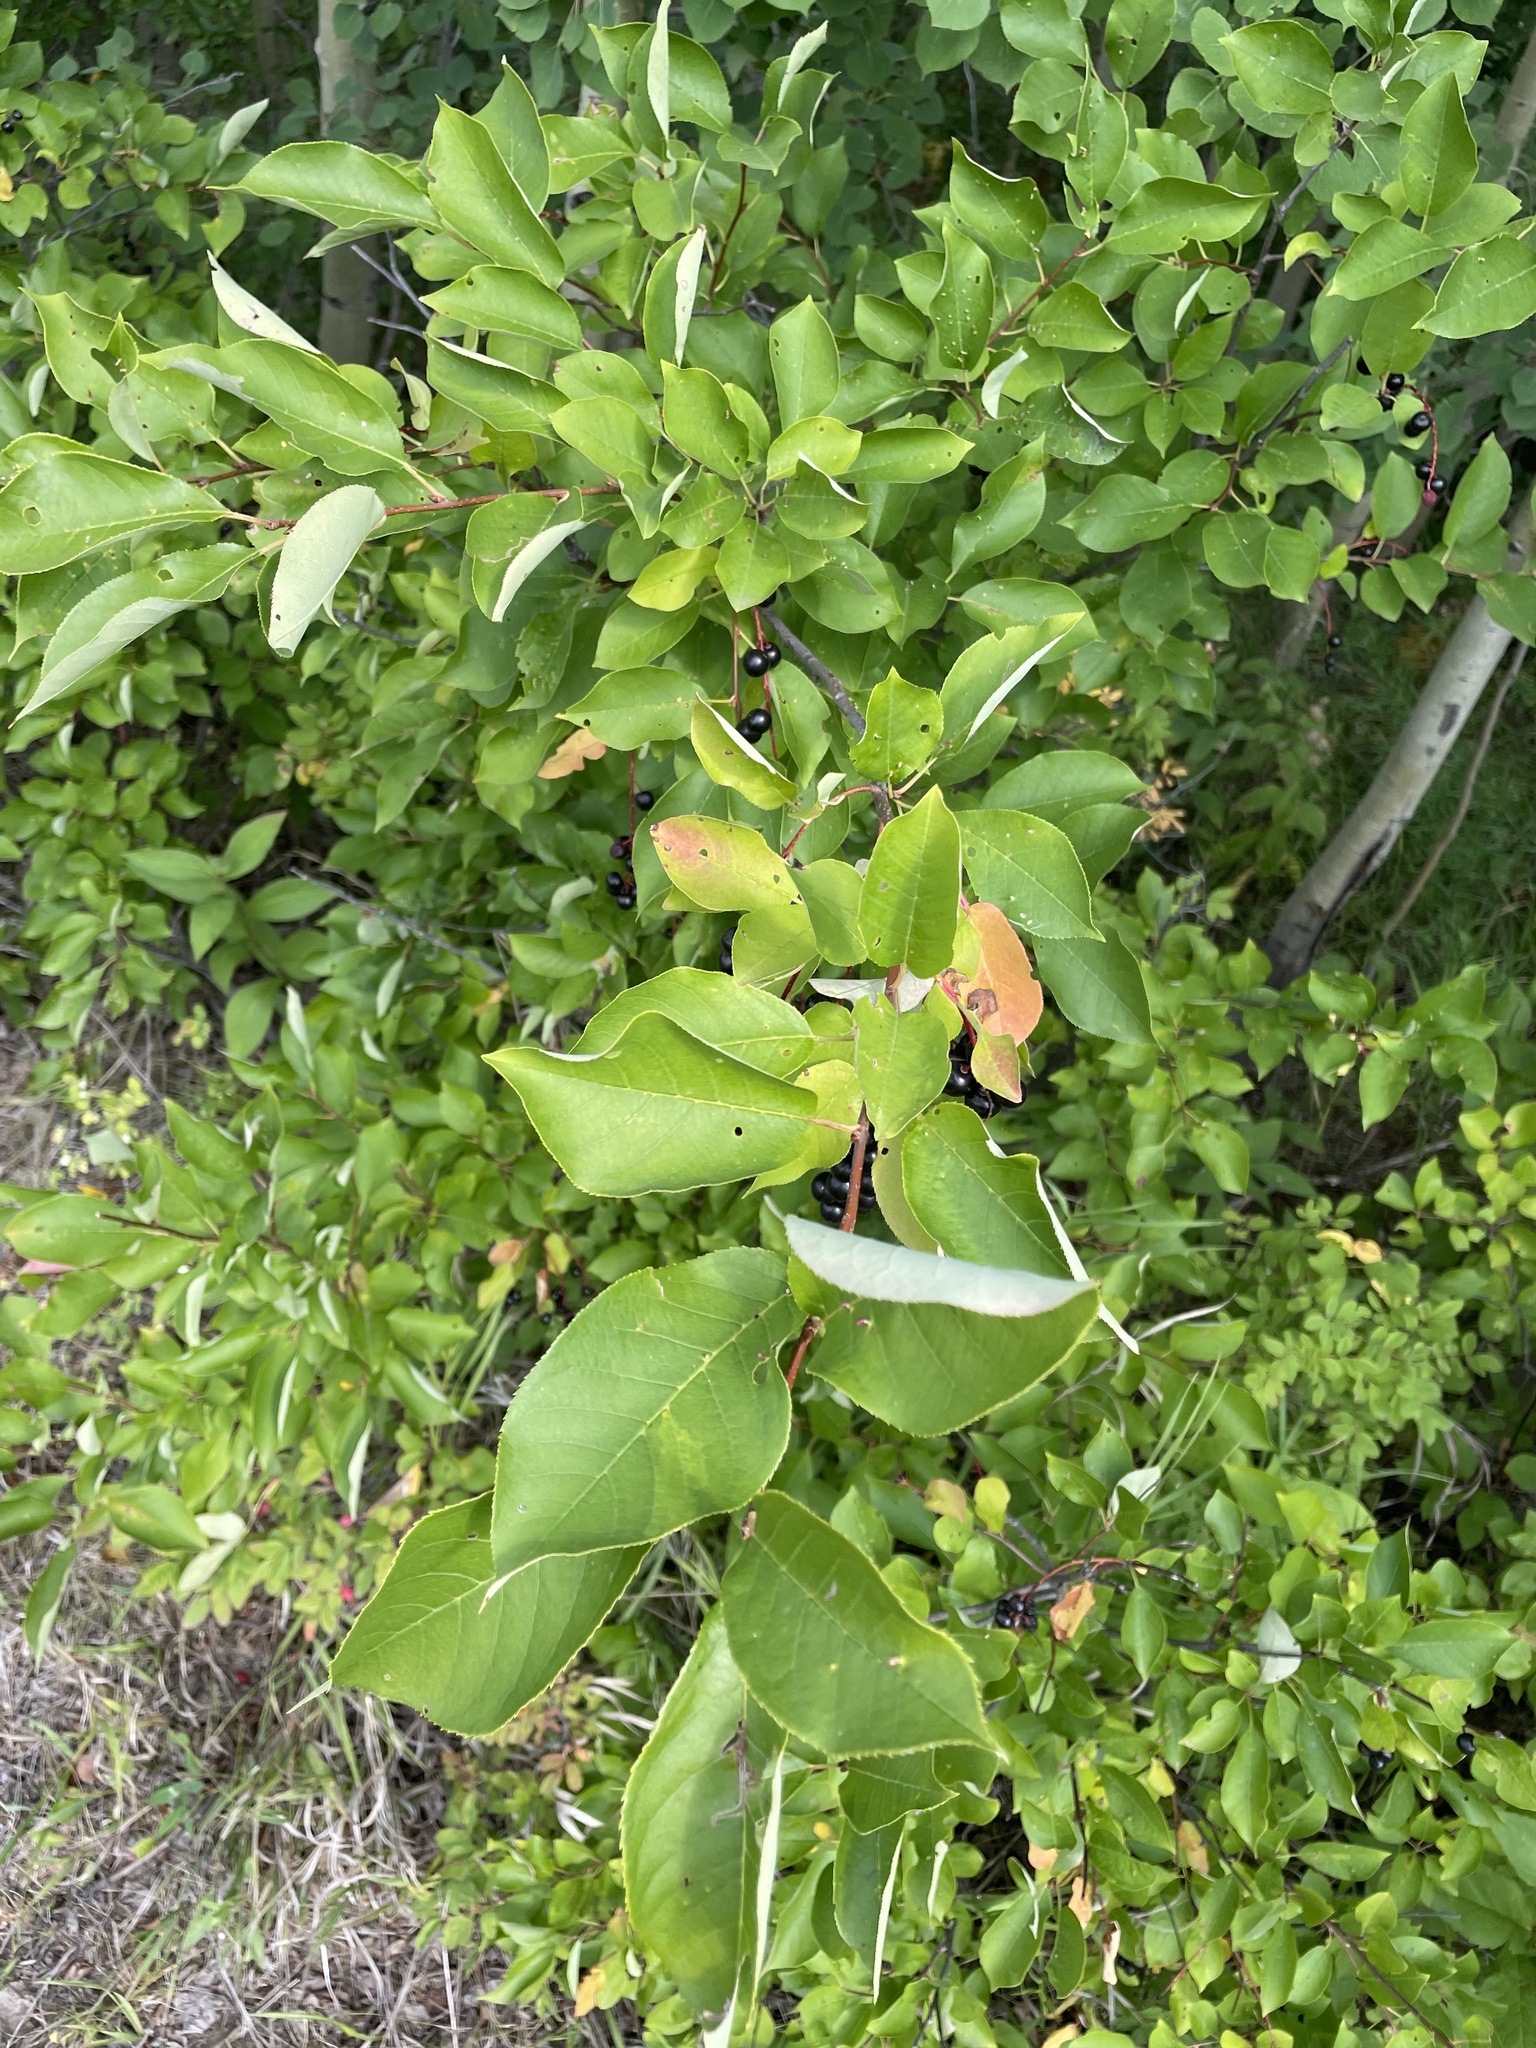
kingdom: Plantae
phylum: Tracheophyta
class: Magnoliopsida
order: Rosales
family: Rosaceae
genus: Prunus
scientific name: Prunus virginiana
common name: Chokecherry
